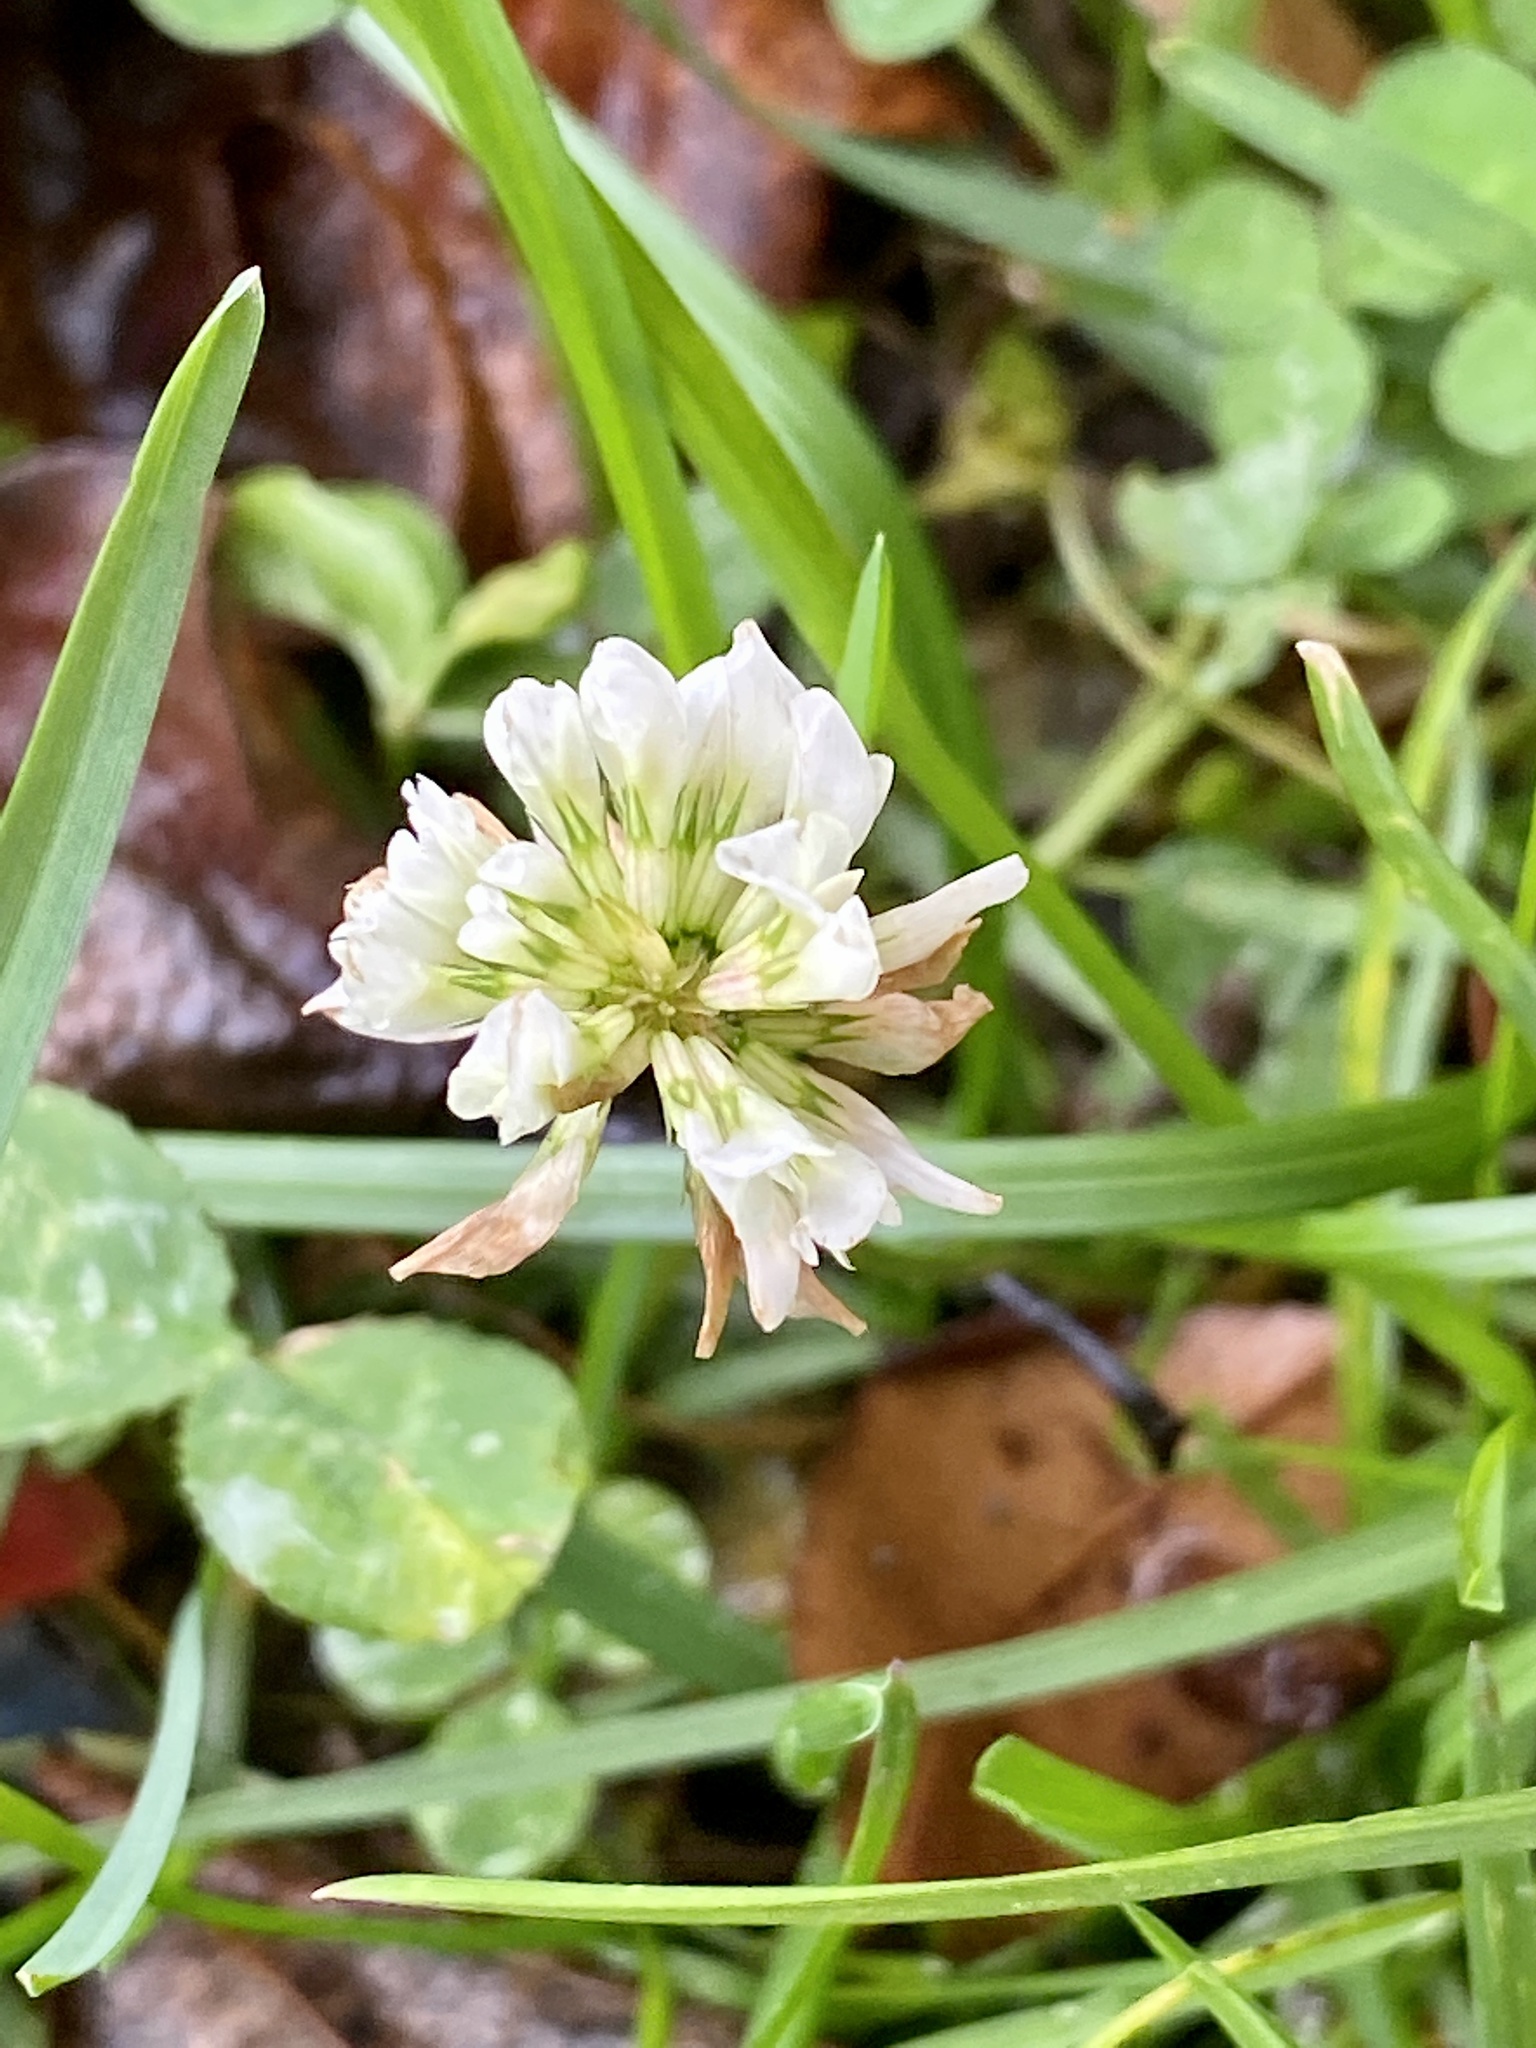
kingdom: Plantae
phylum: Tracheophyta
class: Magnoliopsida
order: Fabales
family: Fabaceae
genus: Trifolium
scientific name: Trifolium repens
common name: White clover
